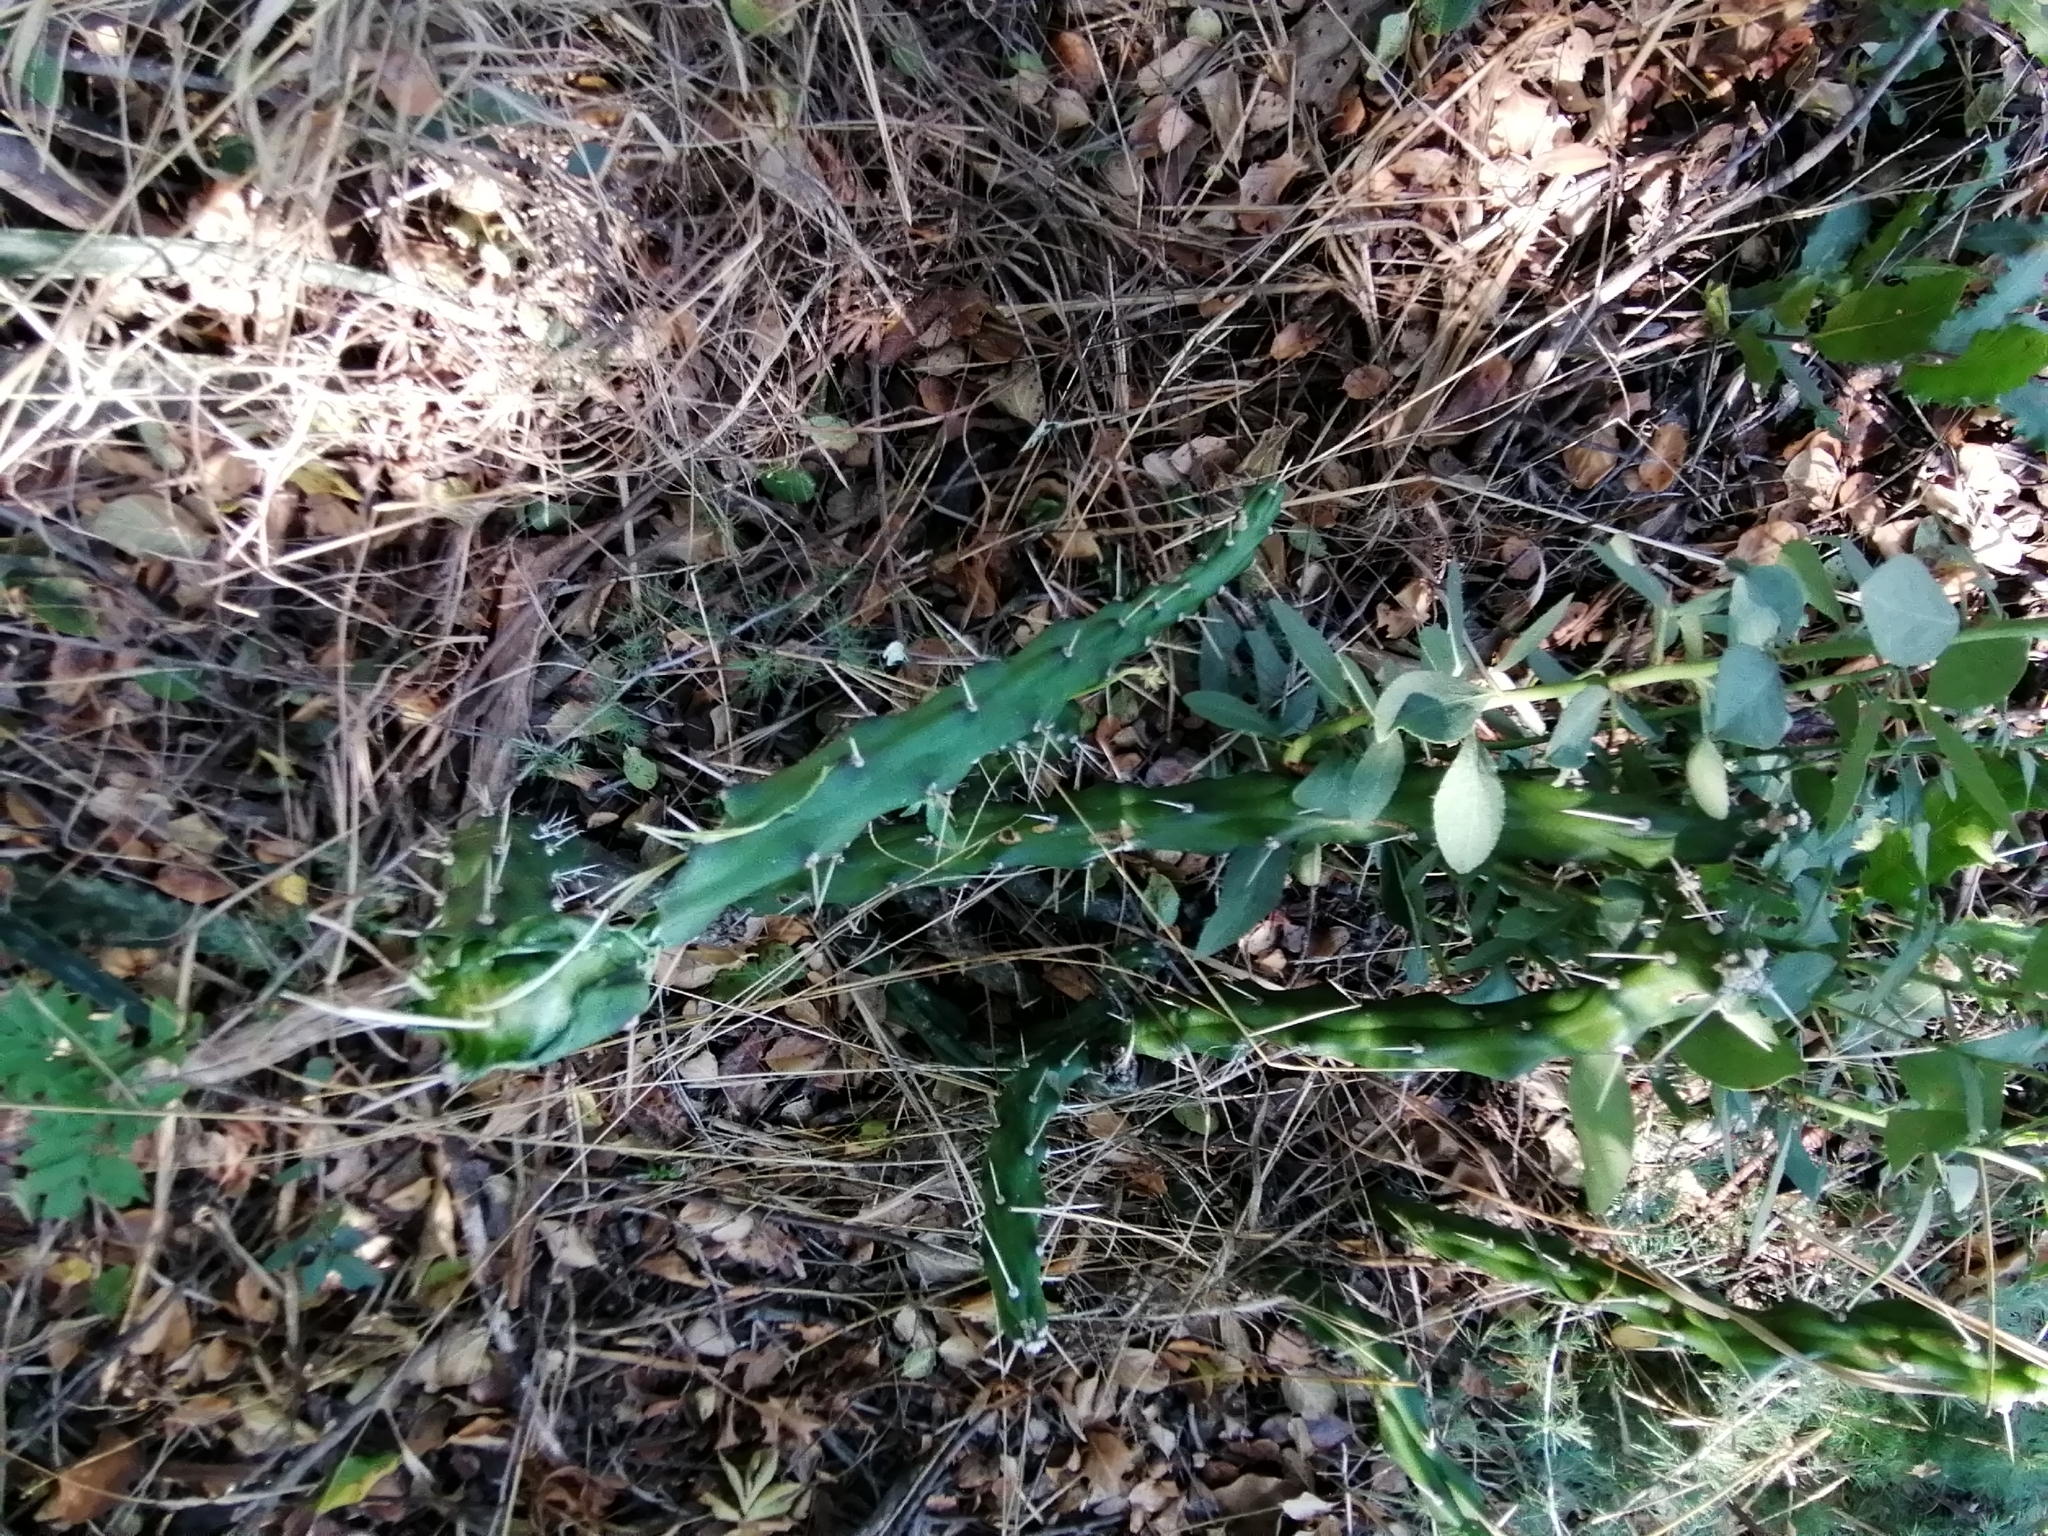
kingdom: Plantae
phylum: Tracheophyta
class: Magnoliopsida
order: Caryophyllales
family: Cactaceae
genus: Harrisia
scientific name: Harrisia martinii
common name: Moon cactus
